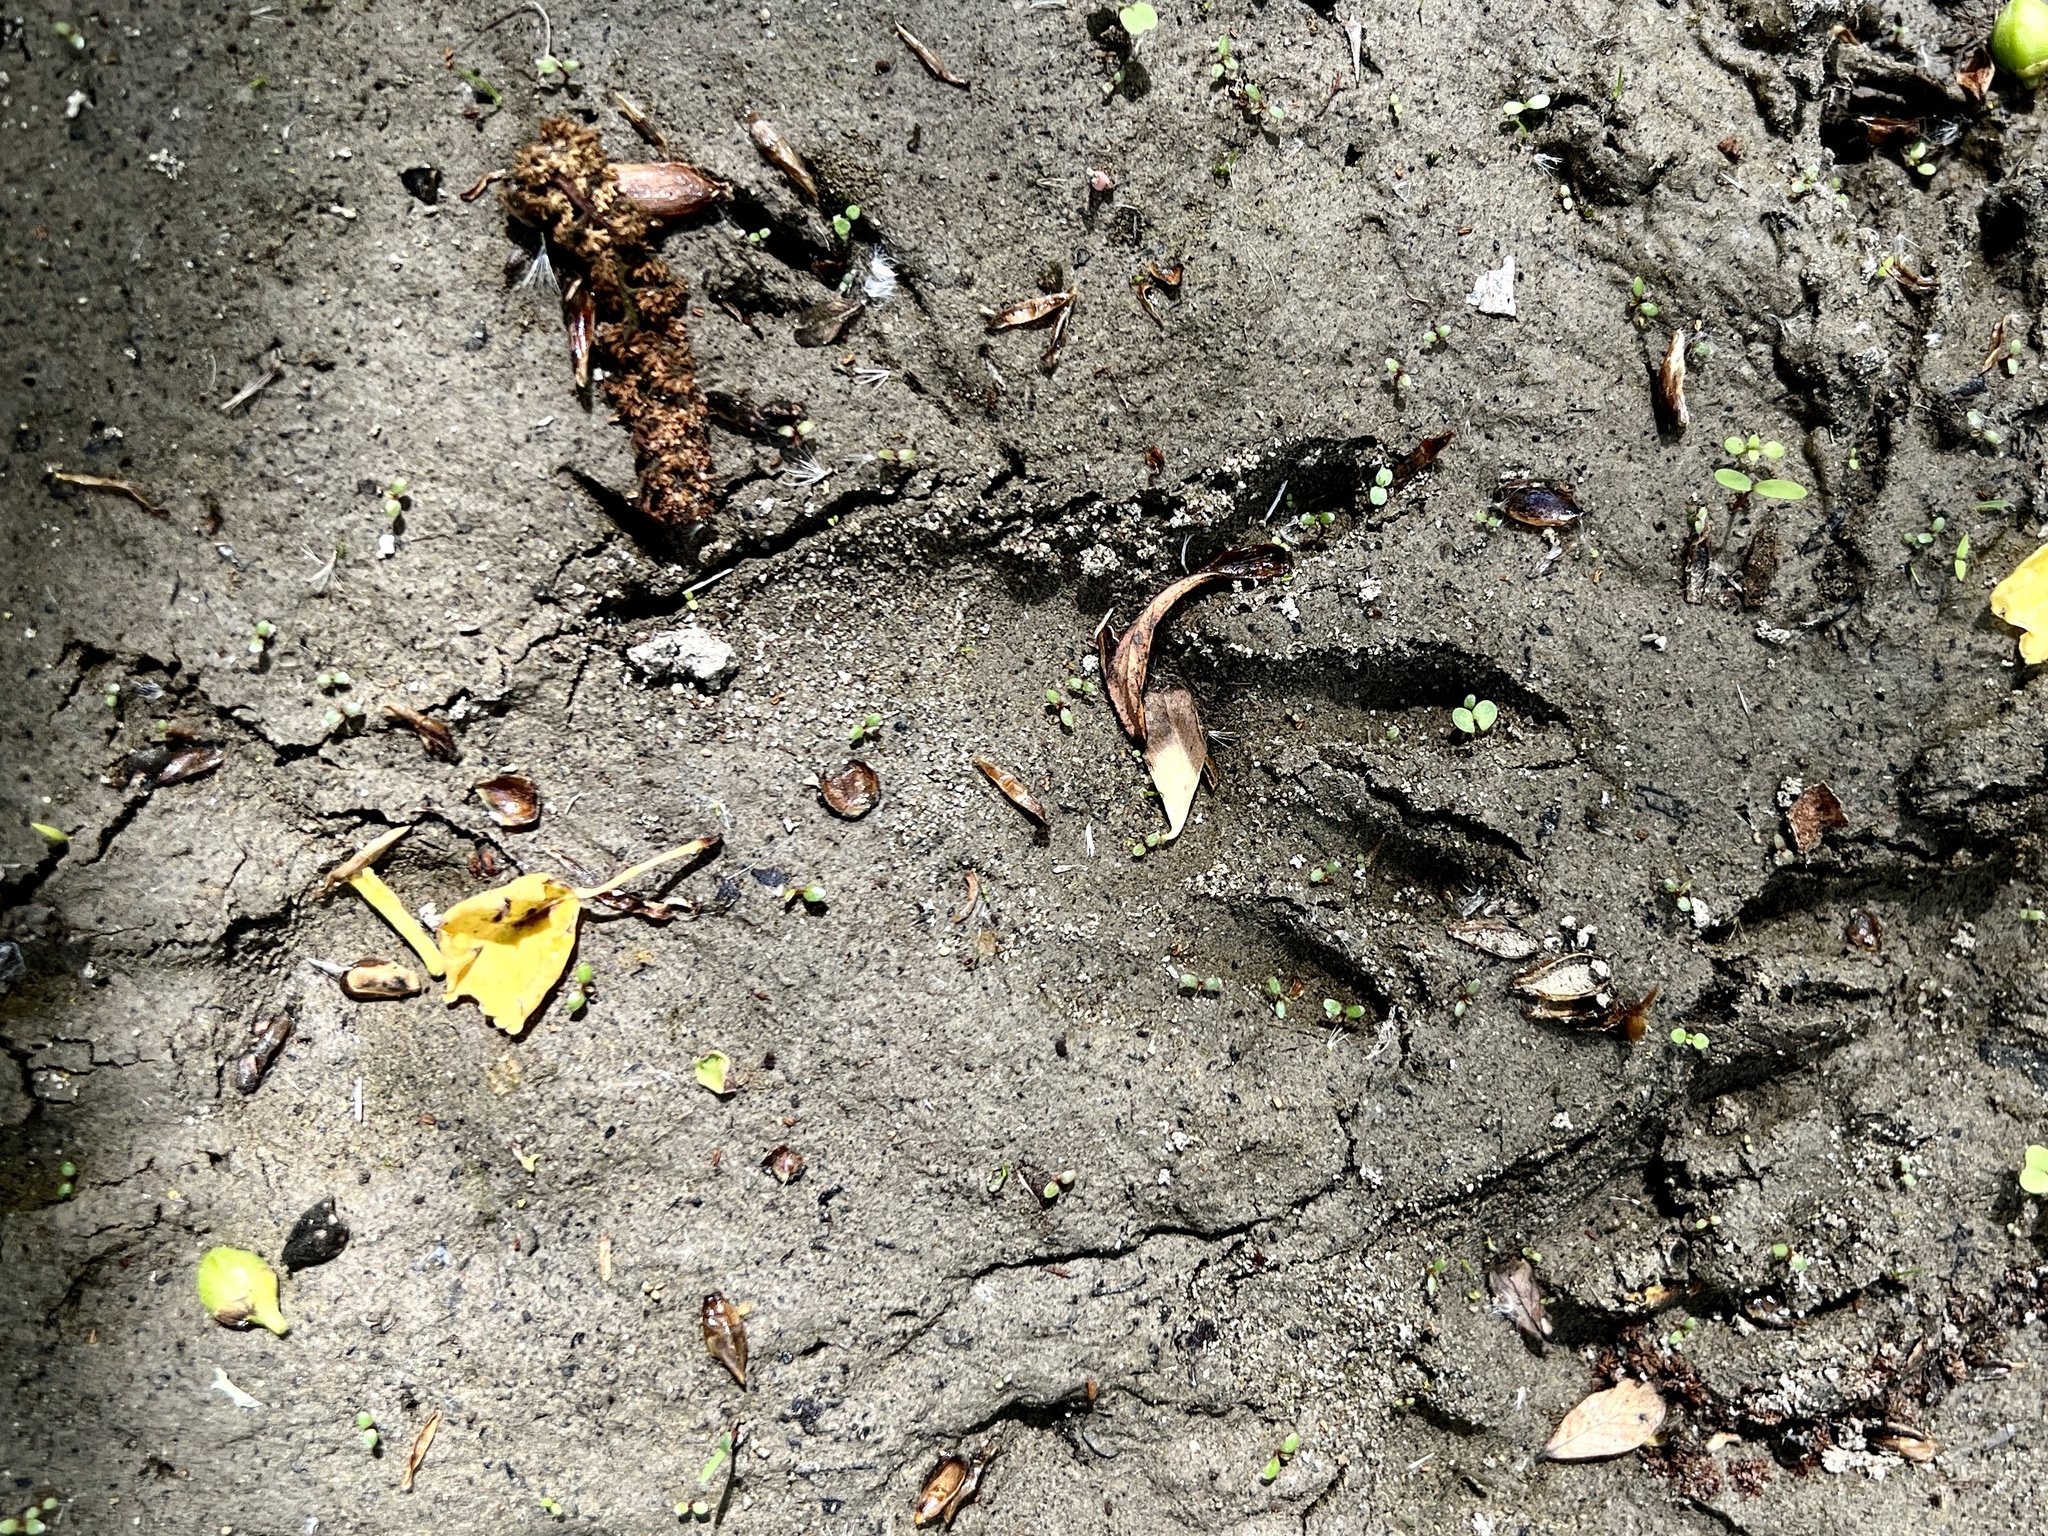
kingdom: Animalia
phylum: Chordata
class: Mammalia
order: Carnivora
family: Procyonidae
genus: Procyon
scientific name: Procyon lotor
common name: Raccoon
